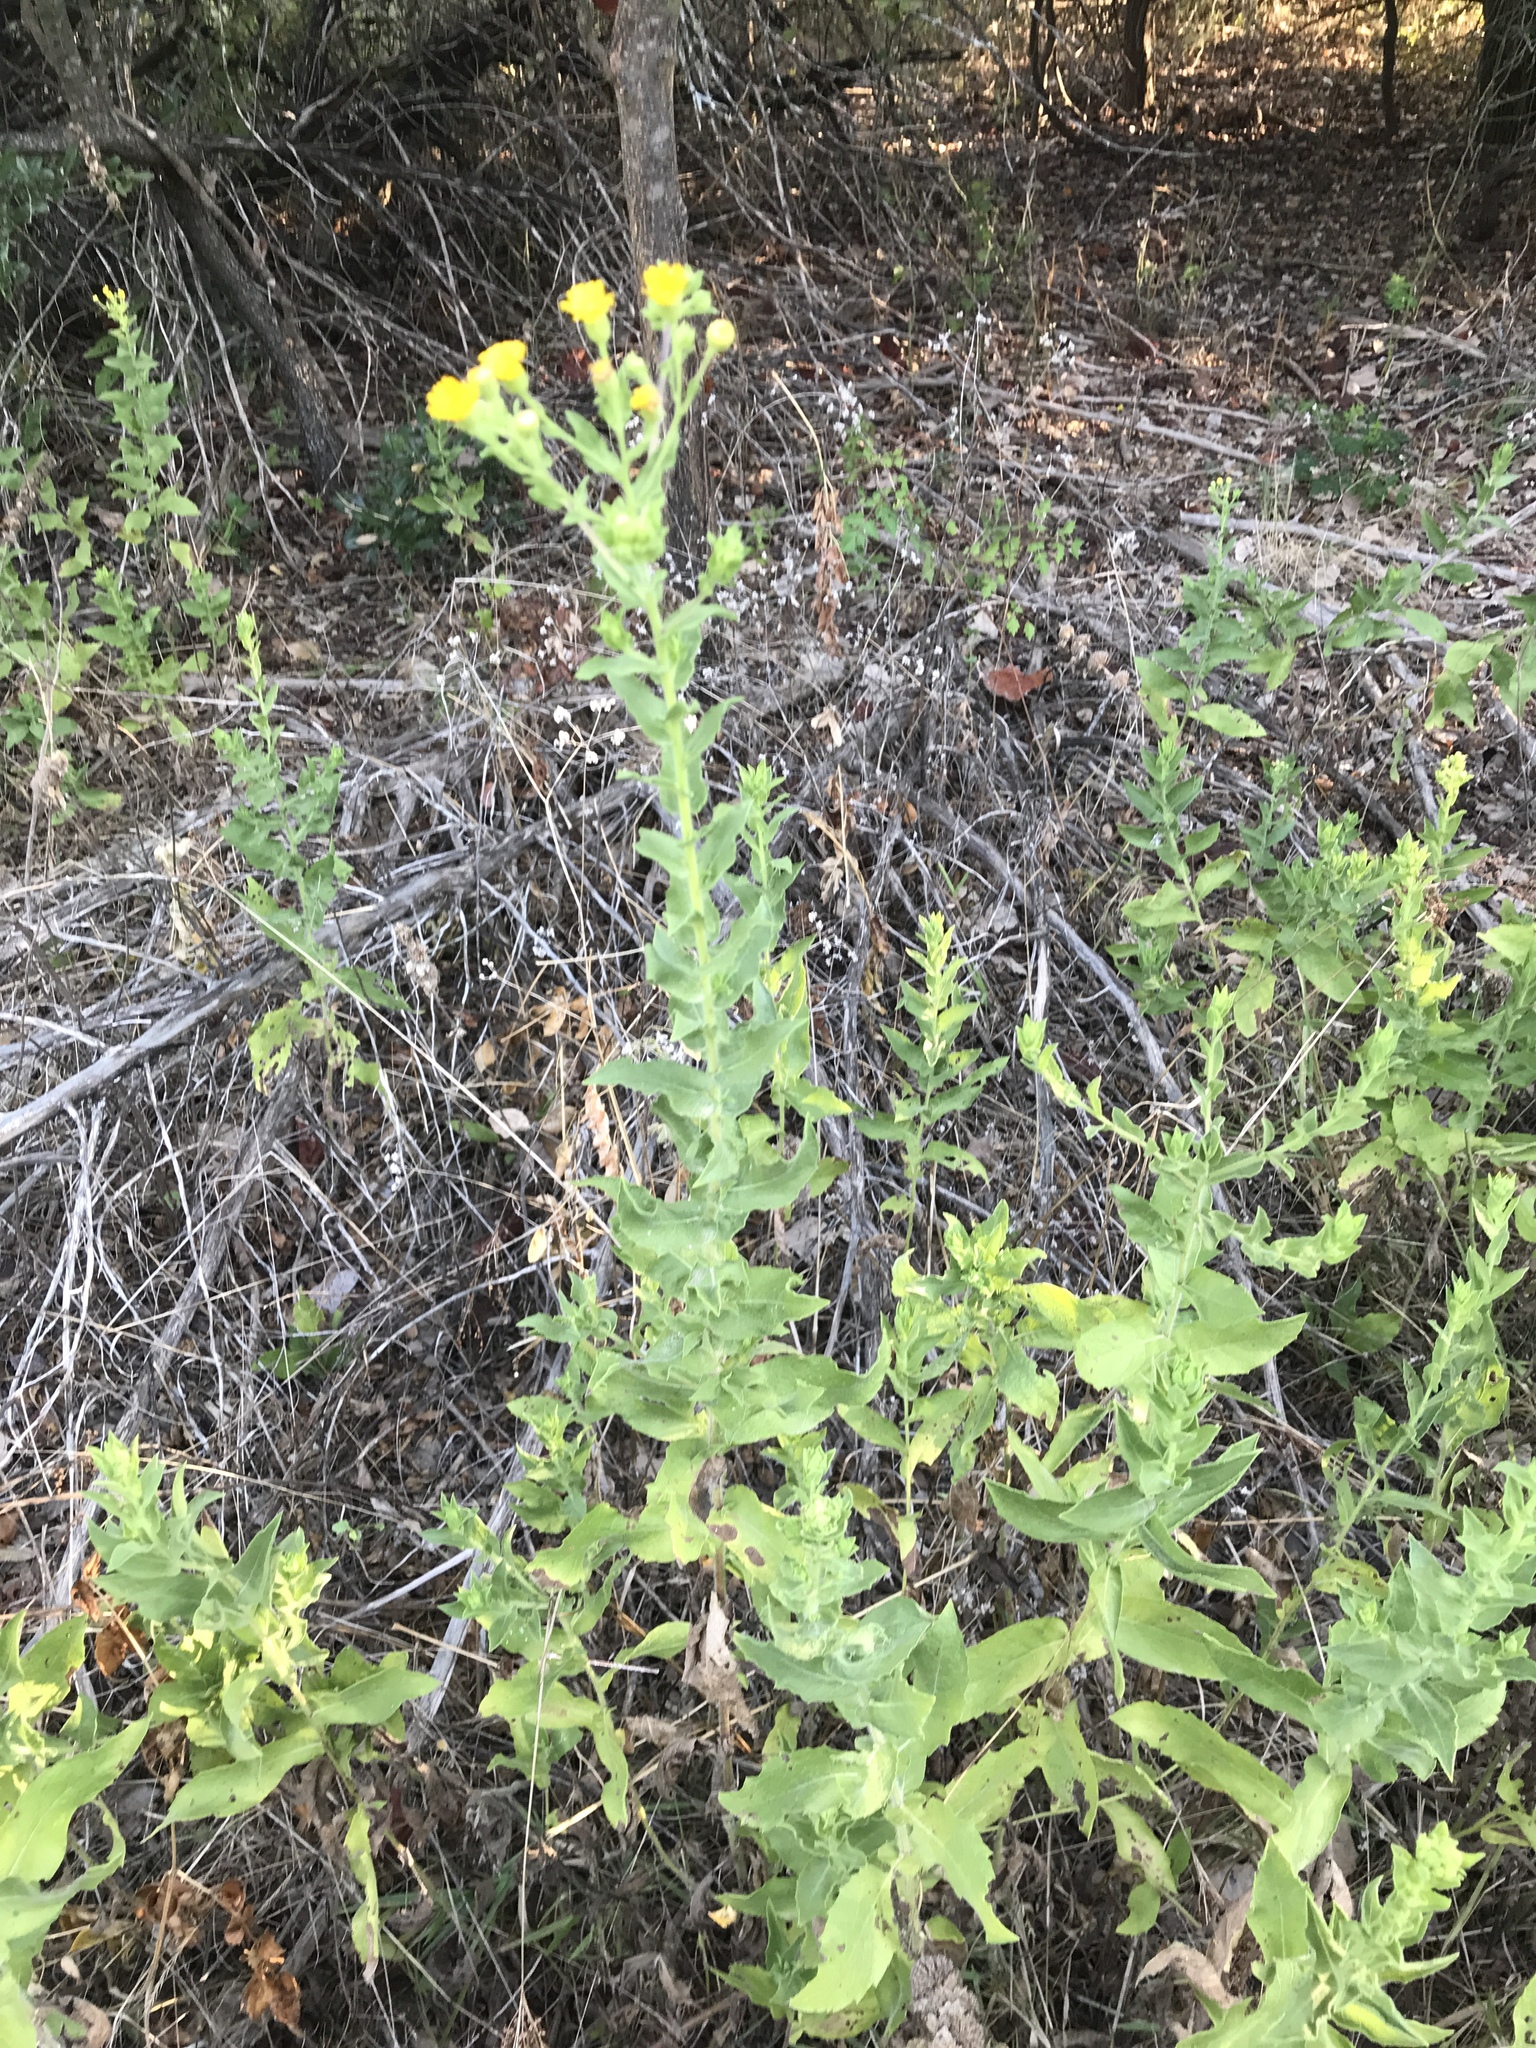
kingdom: Plantae
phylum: Tracheophyta
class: Magnoliopsida
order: Asterales
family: Asteraceae
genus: Heterotheca
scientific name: Heterotheca subaxillaris
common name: Camphorweed
